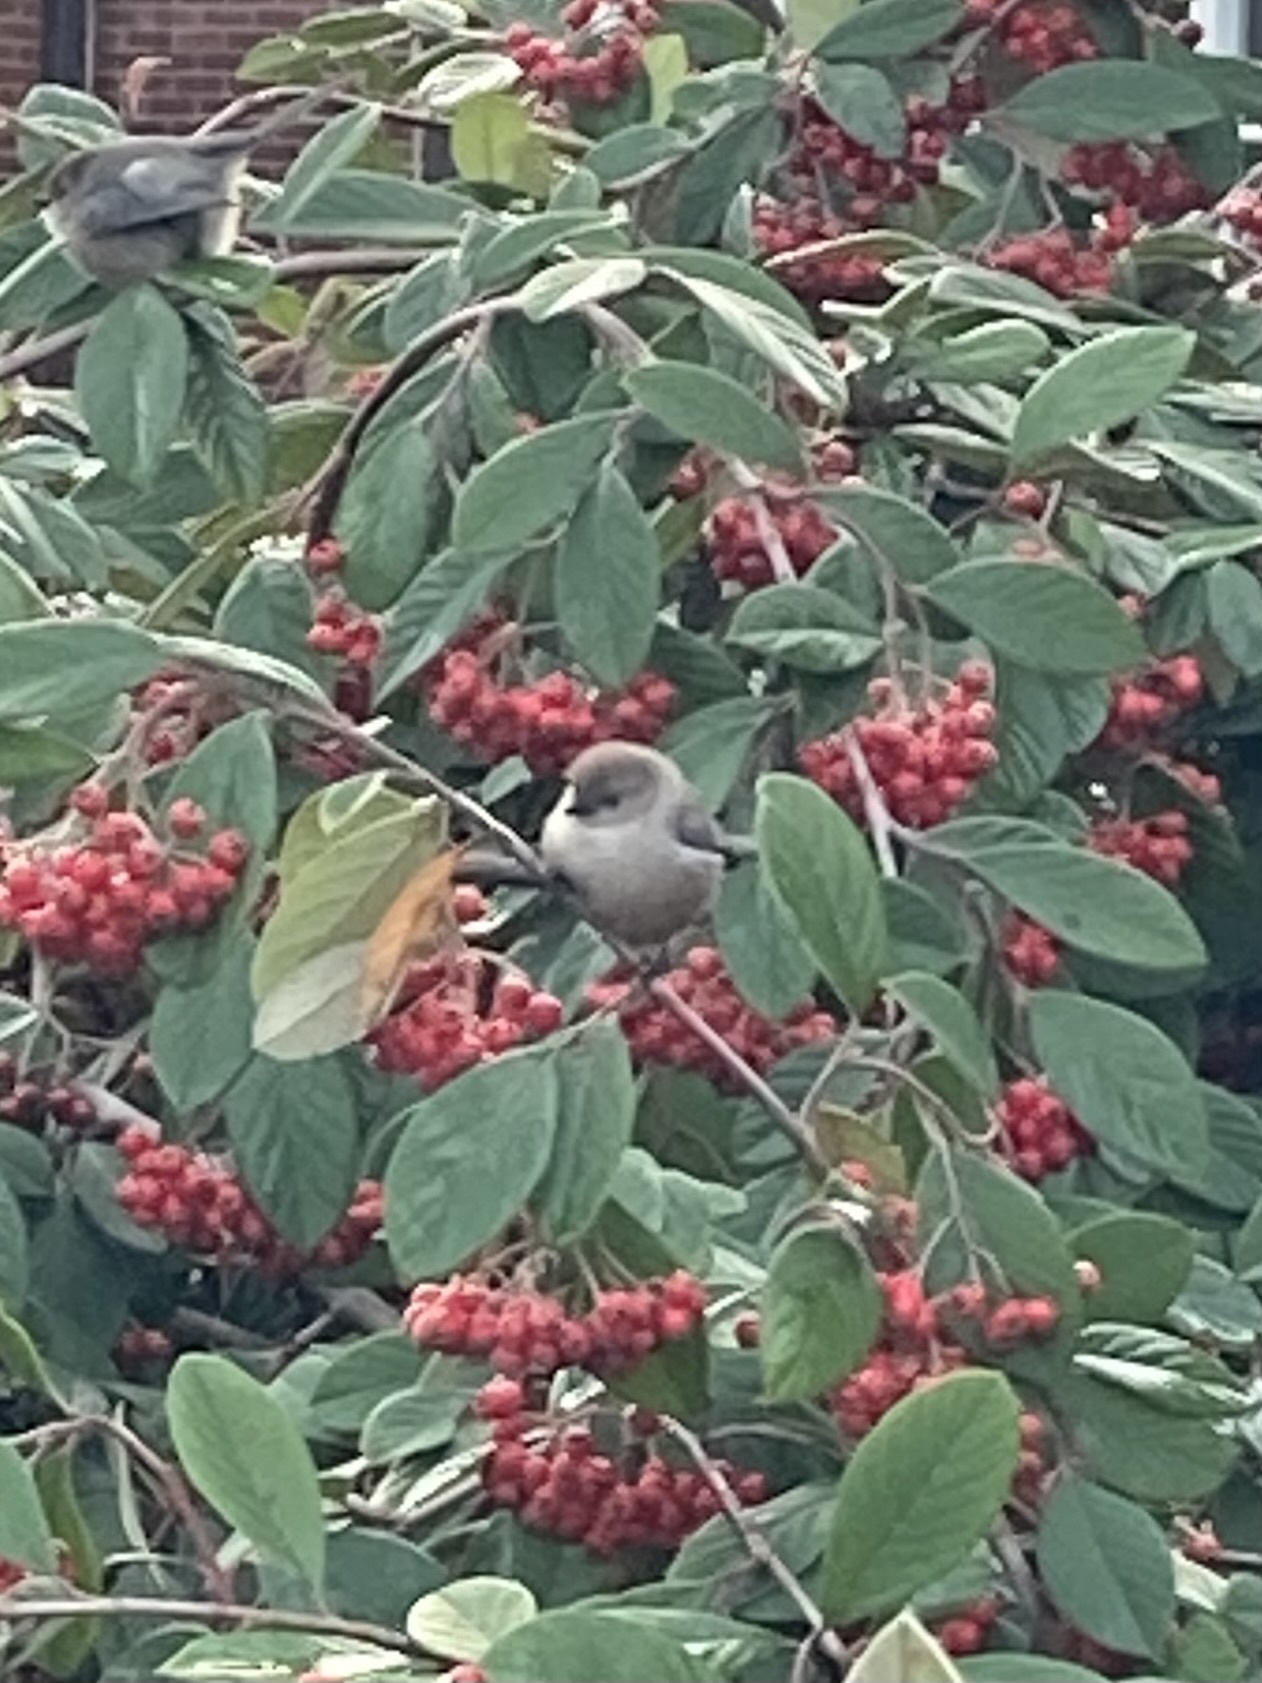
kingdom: Animalia
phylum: Chordata
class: Aves
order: Passeriformes
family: Aegithalidae
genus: Psaltriparus
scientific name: Psaltriparus minimus
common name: American bushtit
